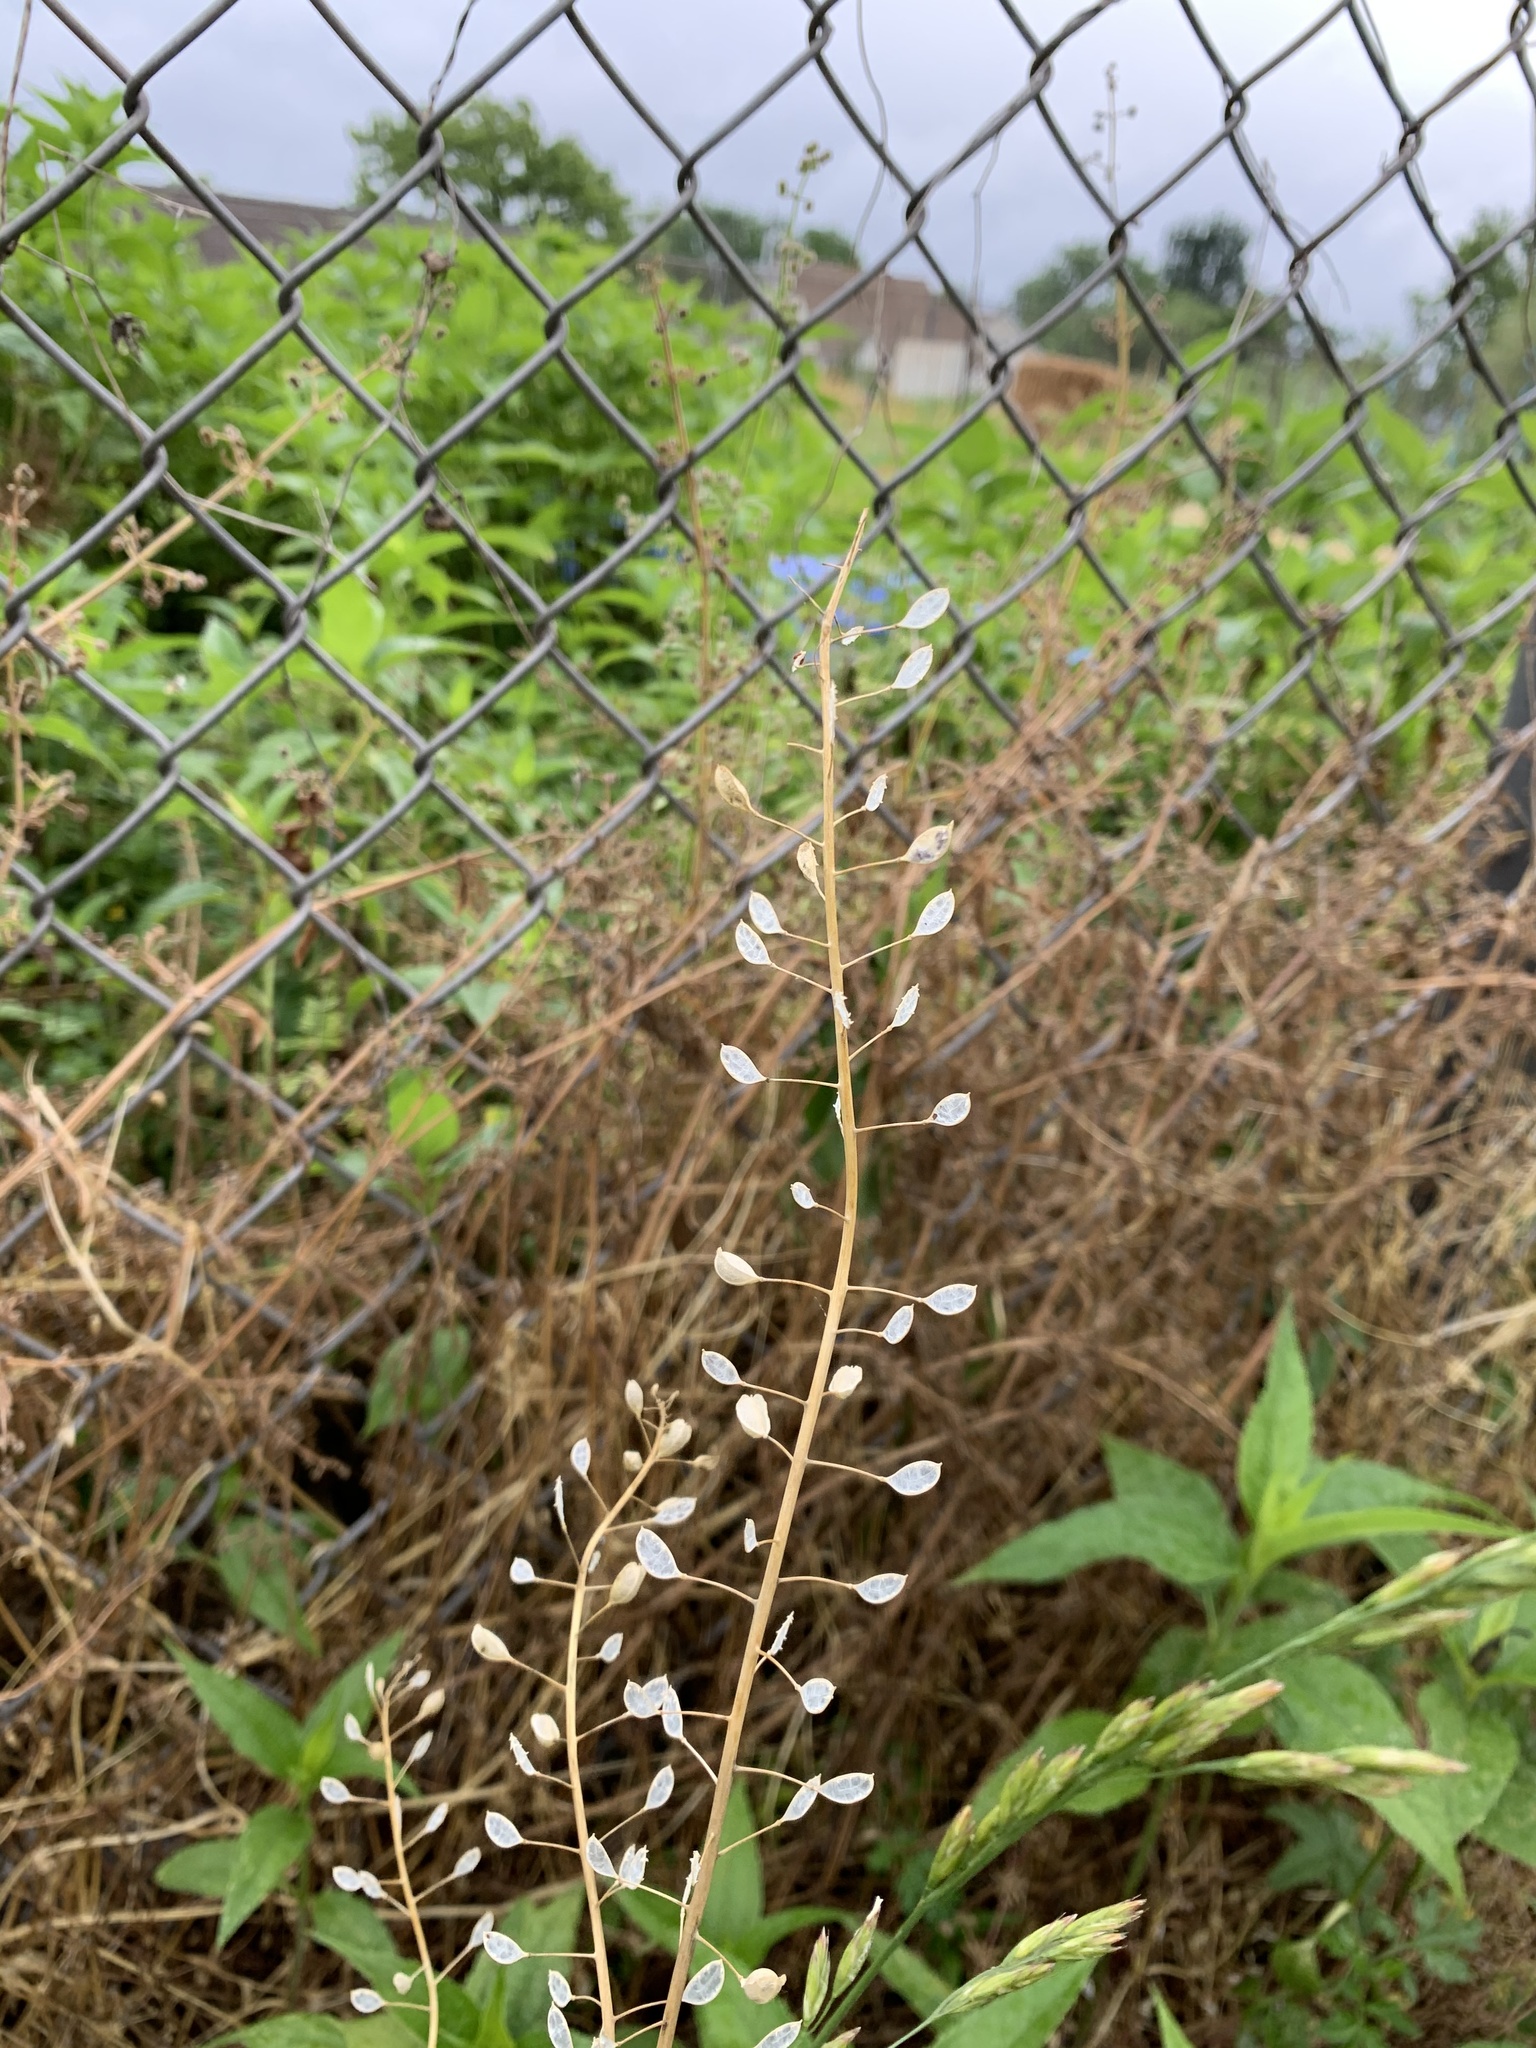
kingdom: Plantae
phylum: Tracheophyta
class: Magnoliopsida
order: Brassicales
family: Brassicaceae
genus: Mummenhoffia
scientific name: Mummenhoffia alliacea
